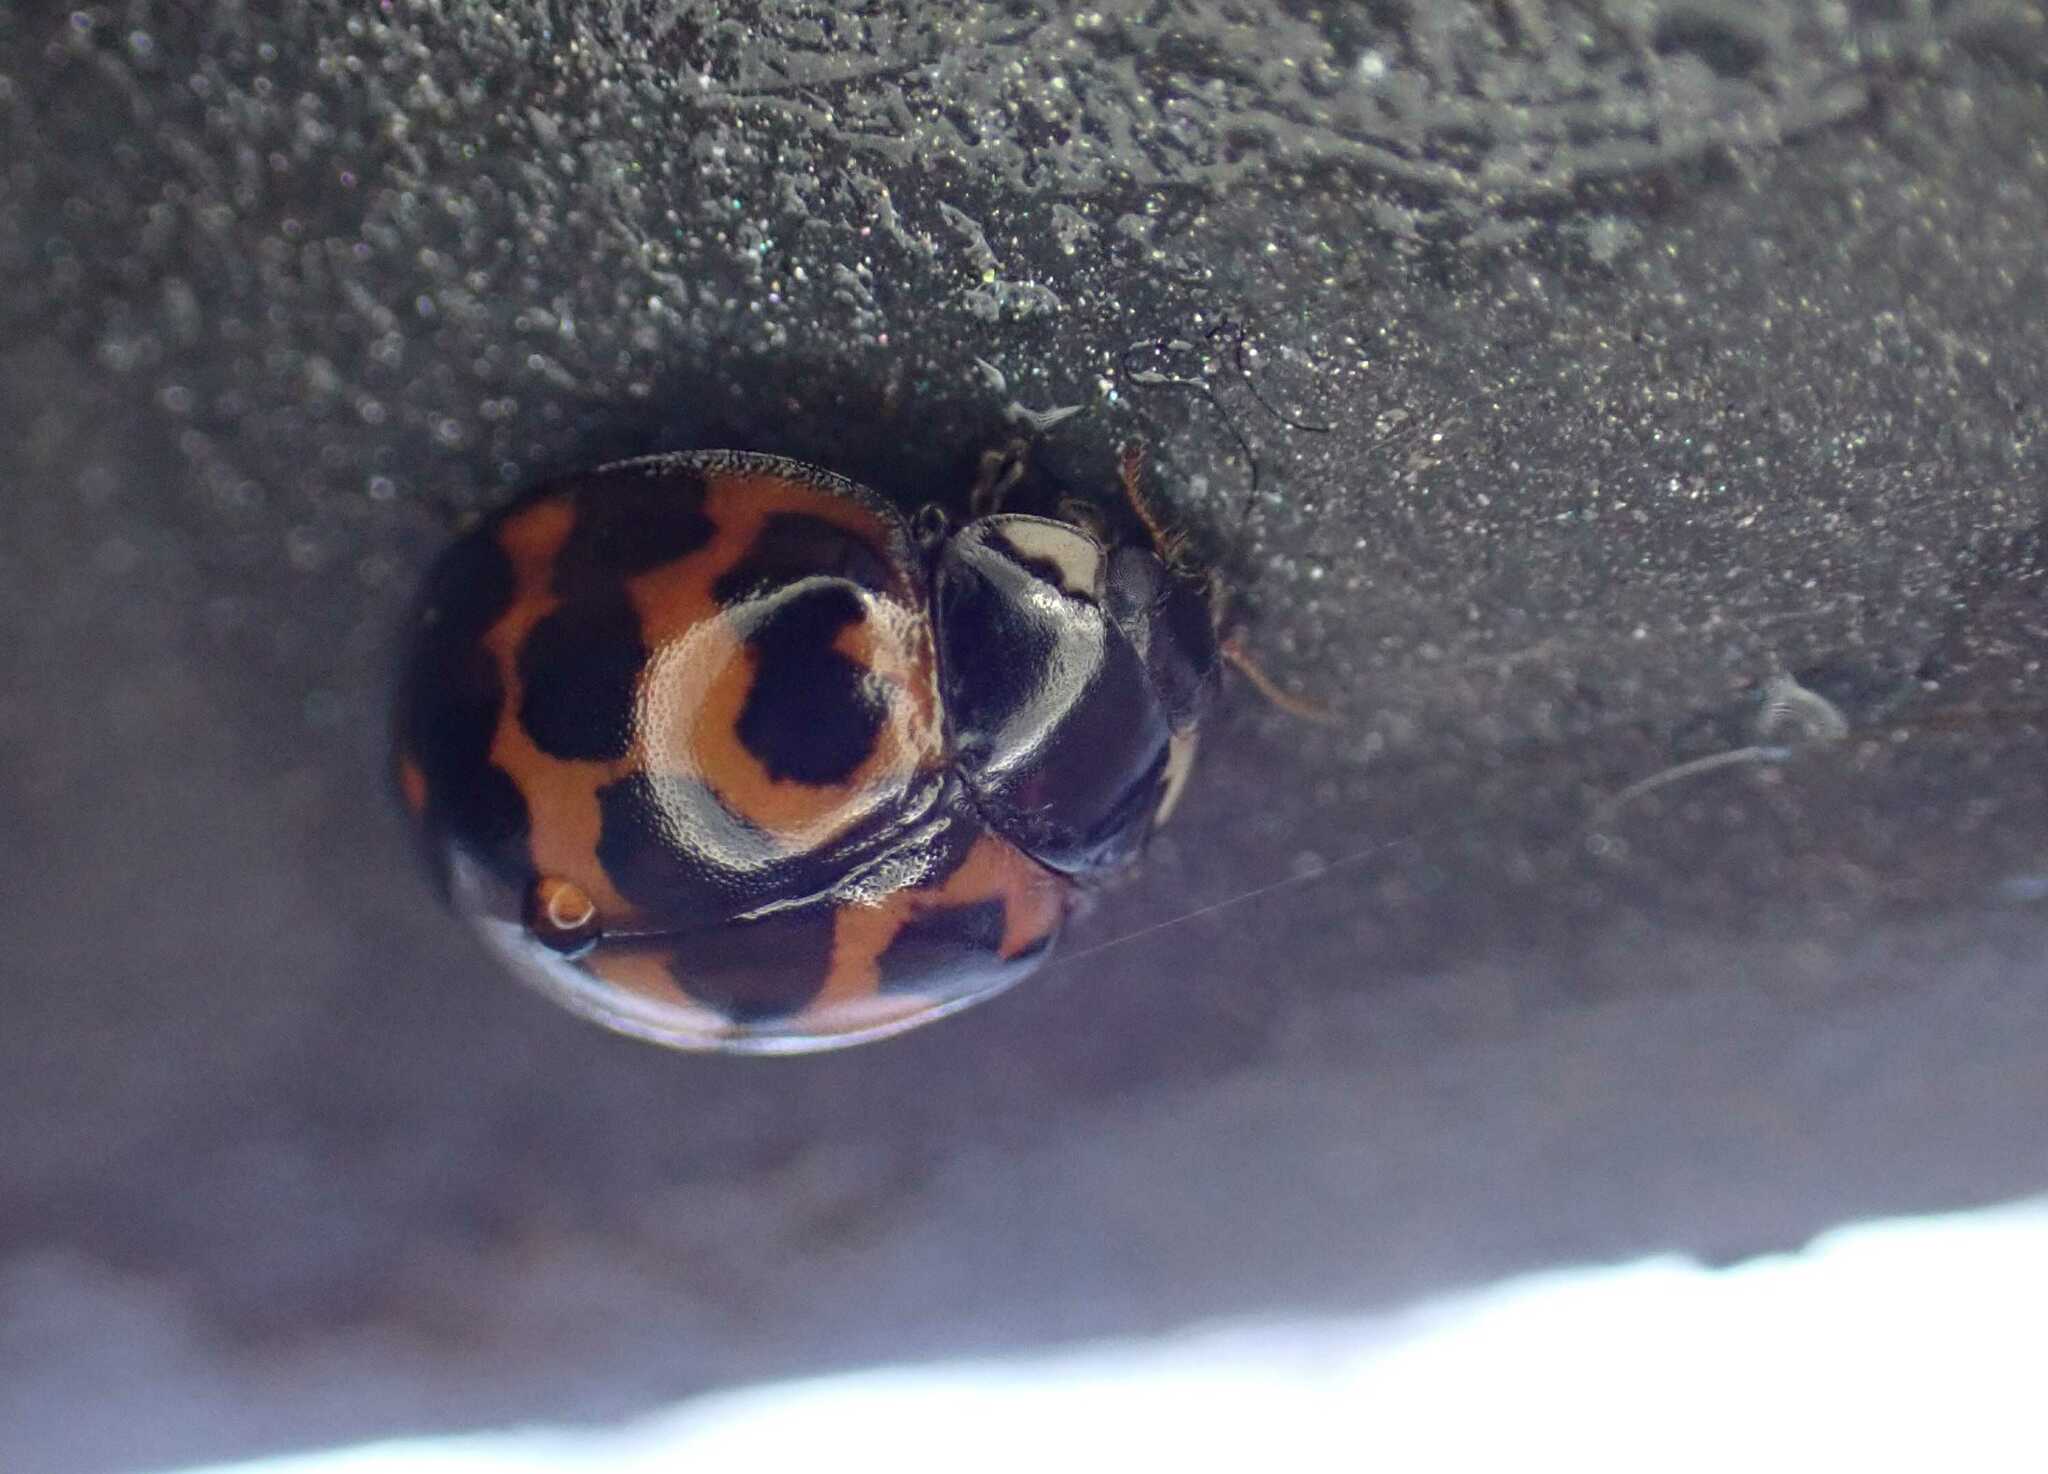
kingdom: Animalia
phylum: Arthropoda
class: Insecta
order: Coleoptera
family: Coccinellidae
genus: Harmonia
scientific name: Harmonia axyridis
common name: Harlequin ladybird
